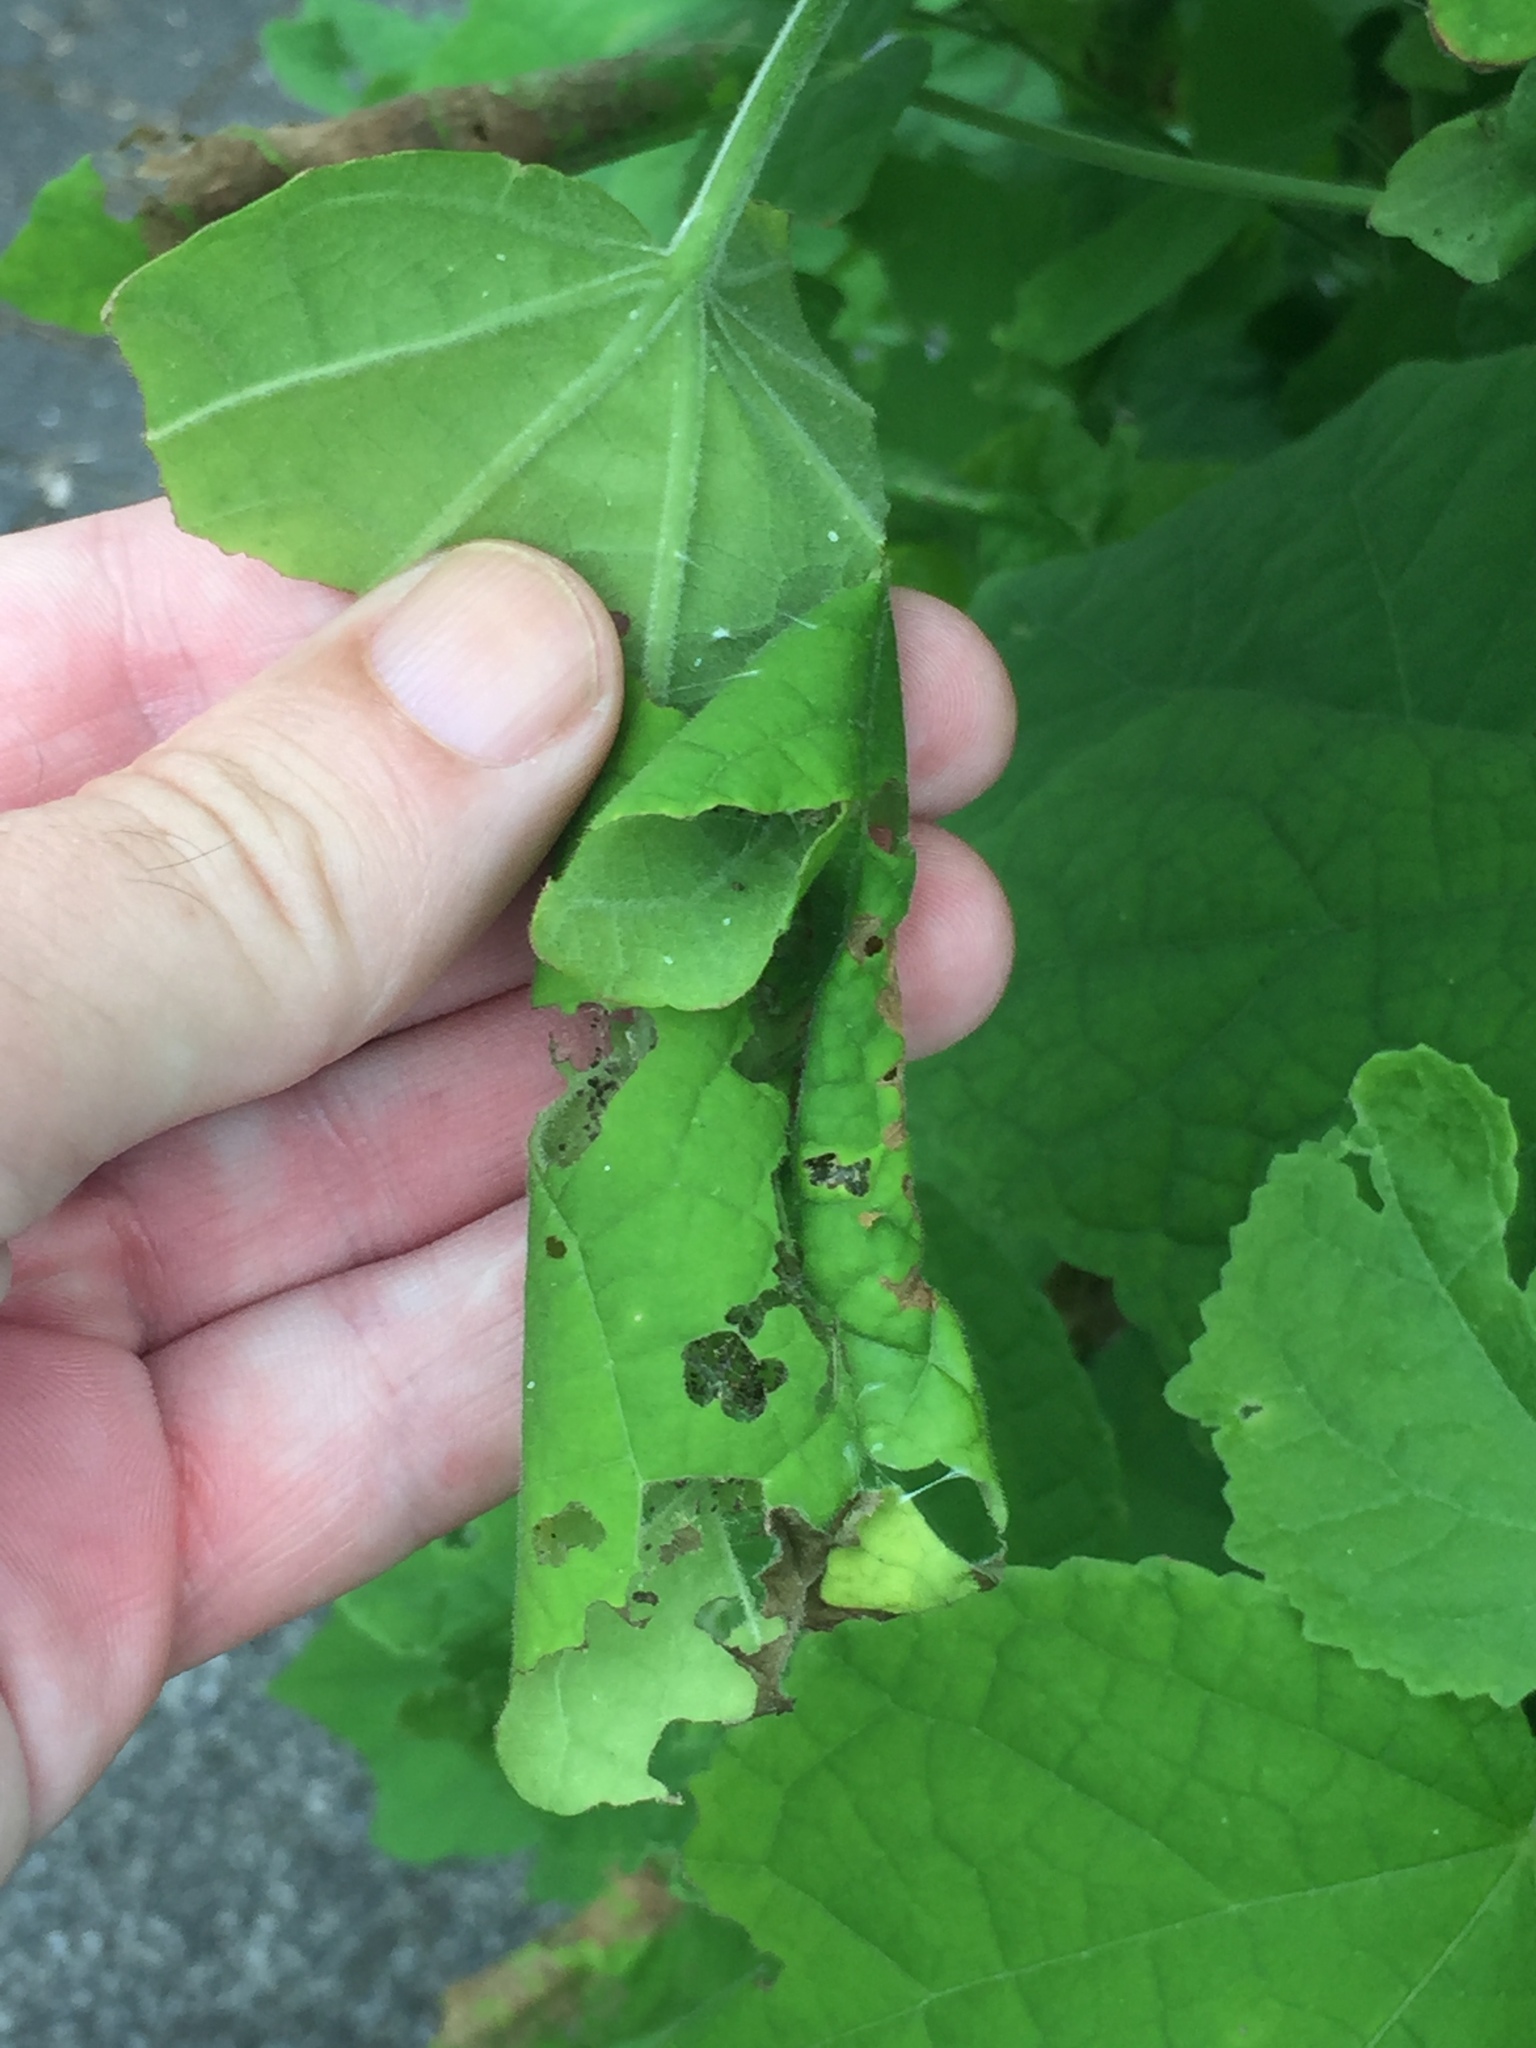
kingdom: Animalia
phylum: Arthropoda
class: Insecta
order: Lepidoptera
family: Crambidae
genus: Haritalodes
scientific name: Haritalodes derogata
